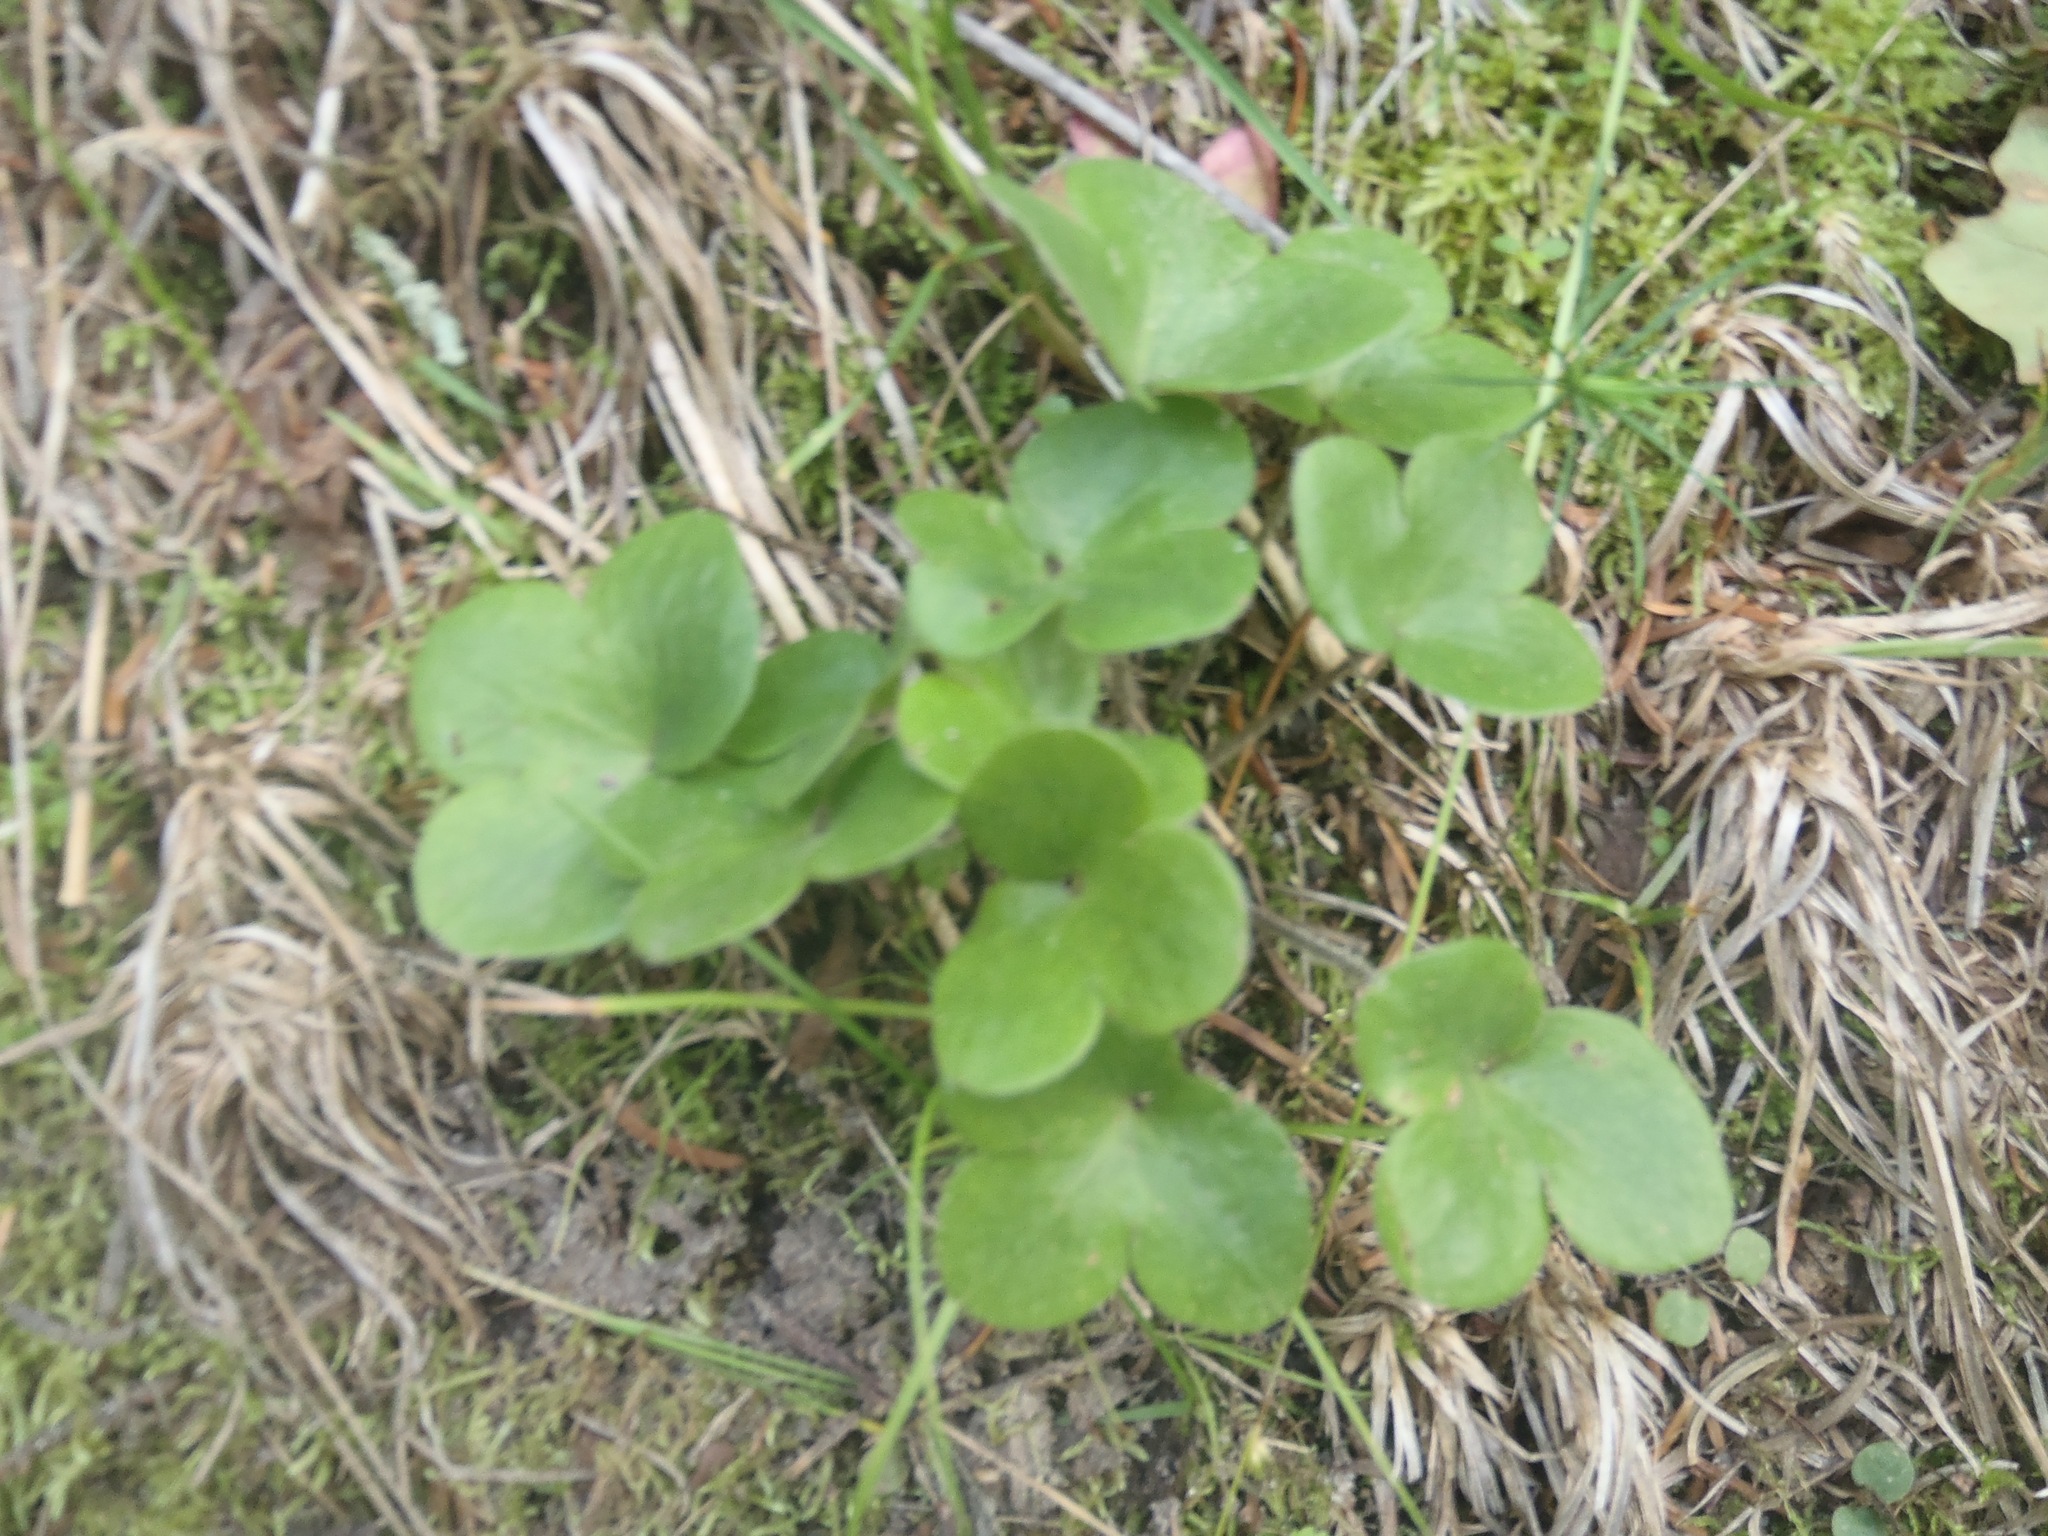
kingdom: Plantae
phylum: Tracheophyta
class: Magnoliopsida
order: Ranunculales
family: Ranunculaceae
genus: Hepatica
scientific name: Hepatica americana
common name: American hepatica
